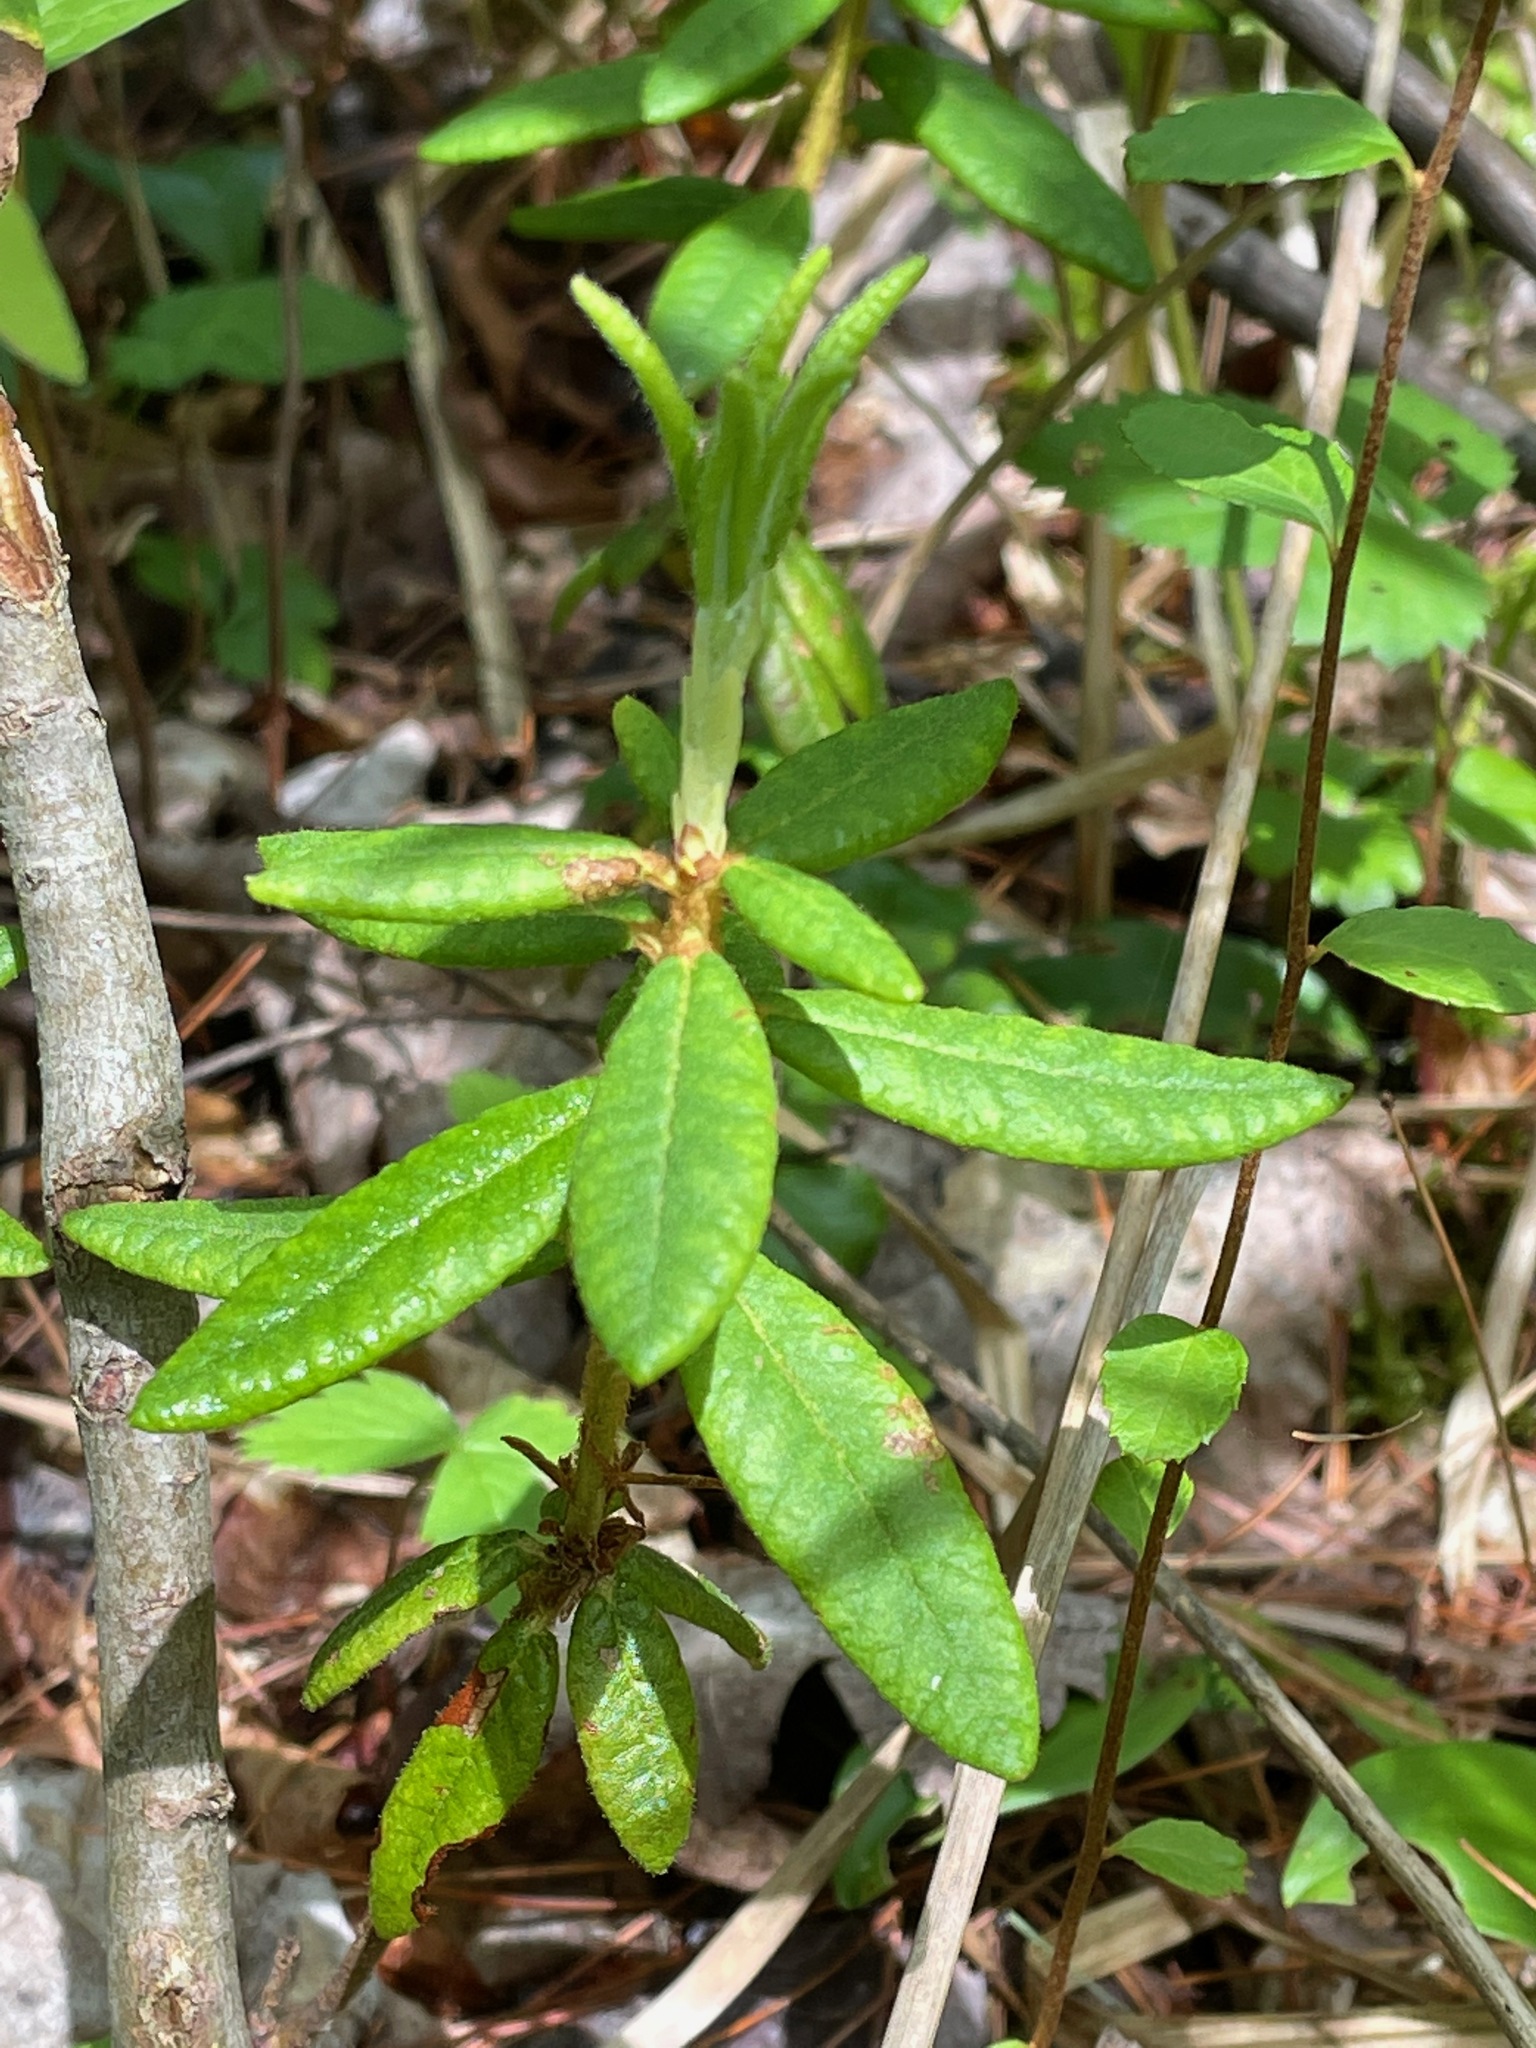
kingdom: Plantae
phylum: Tracheophyta
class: Magnoliopsida
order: Ericales
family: Ericaceae
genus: Rhododendron
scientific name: Rhododendron groenlandicum
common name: Bog labrador tea
